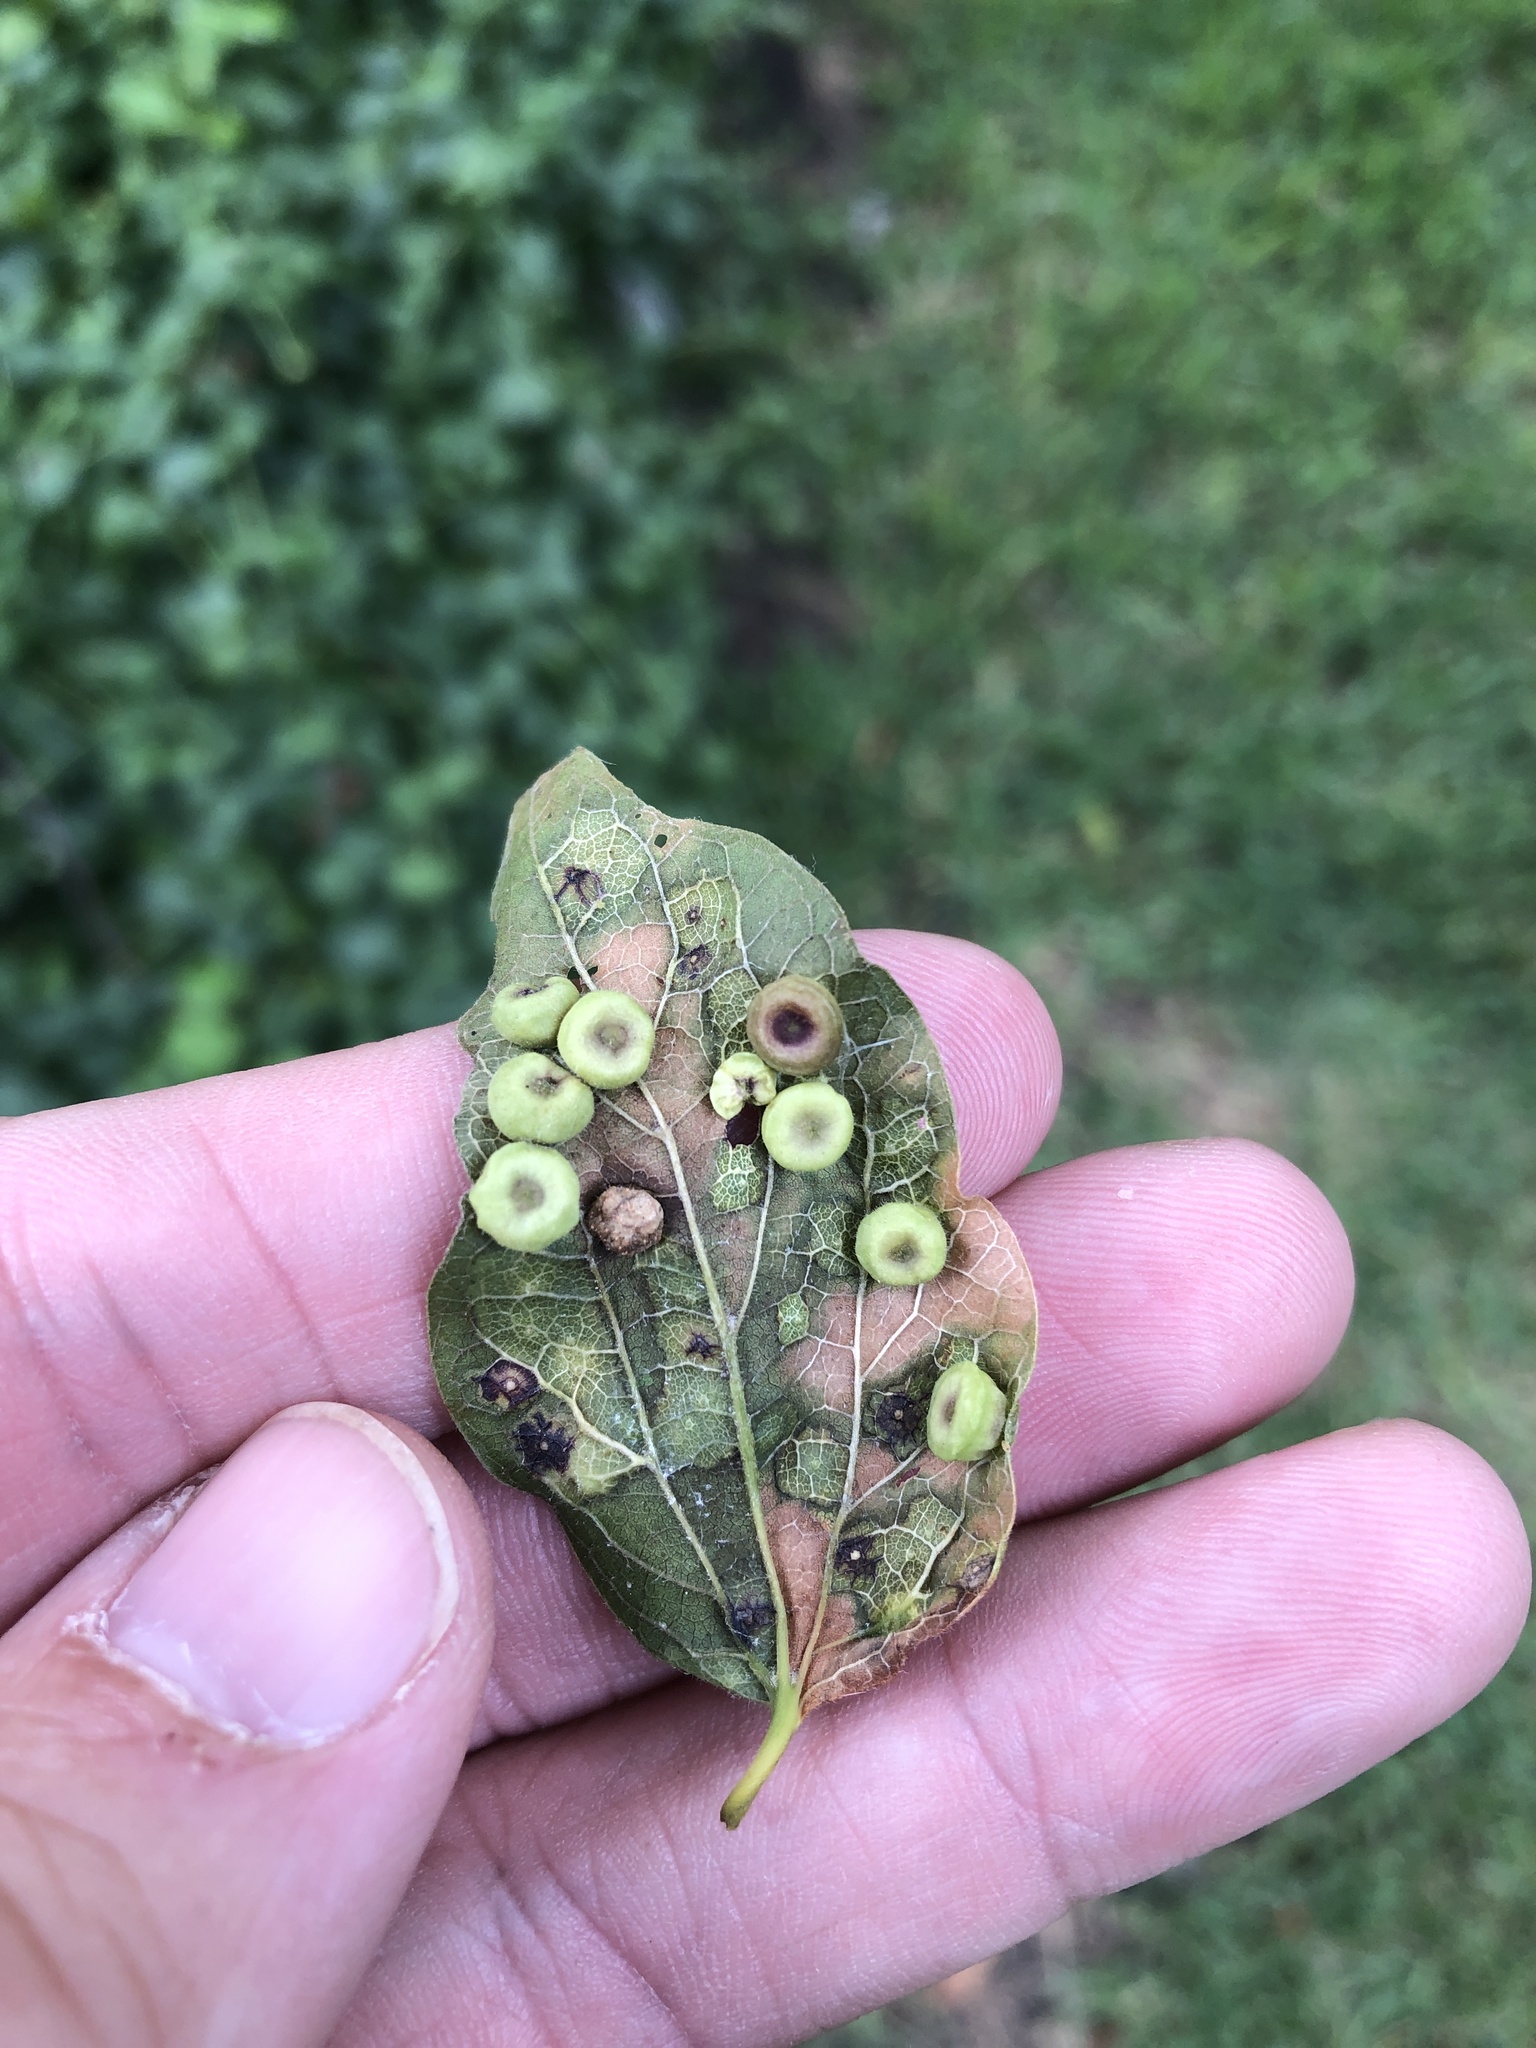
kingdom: Animalia
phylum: Arthropoda
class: Insecta
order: Hemiptera
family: Aphalaridae
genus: Pachypsylla
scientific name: Pachypsylla celtidismamma
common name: Hackberry nipplegall psyllid
